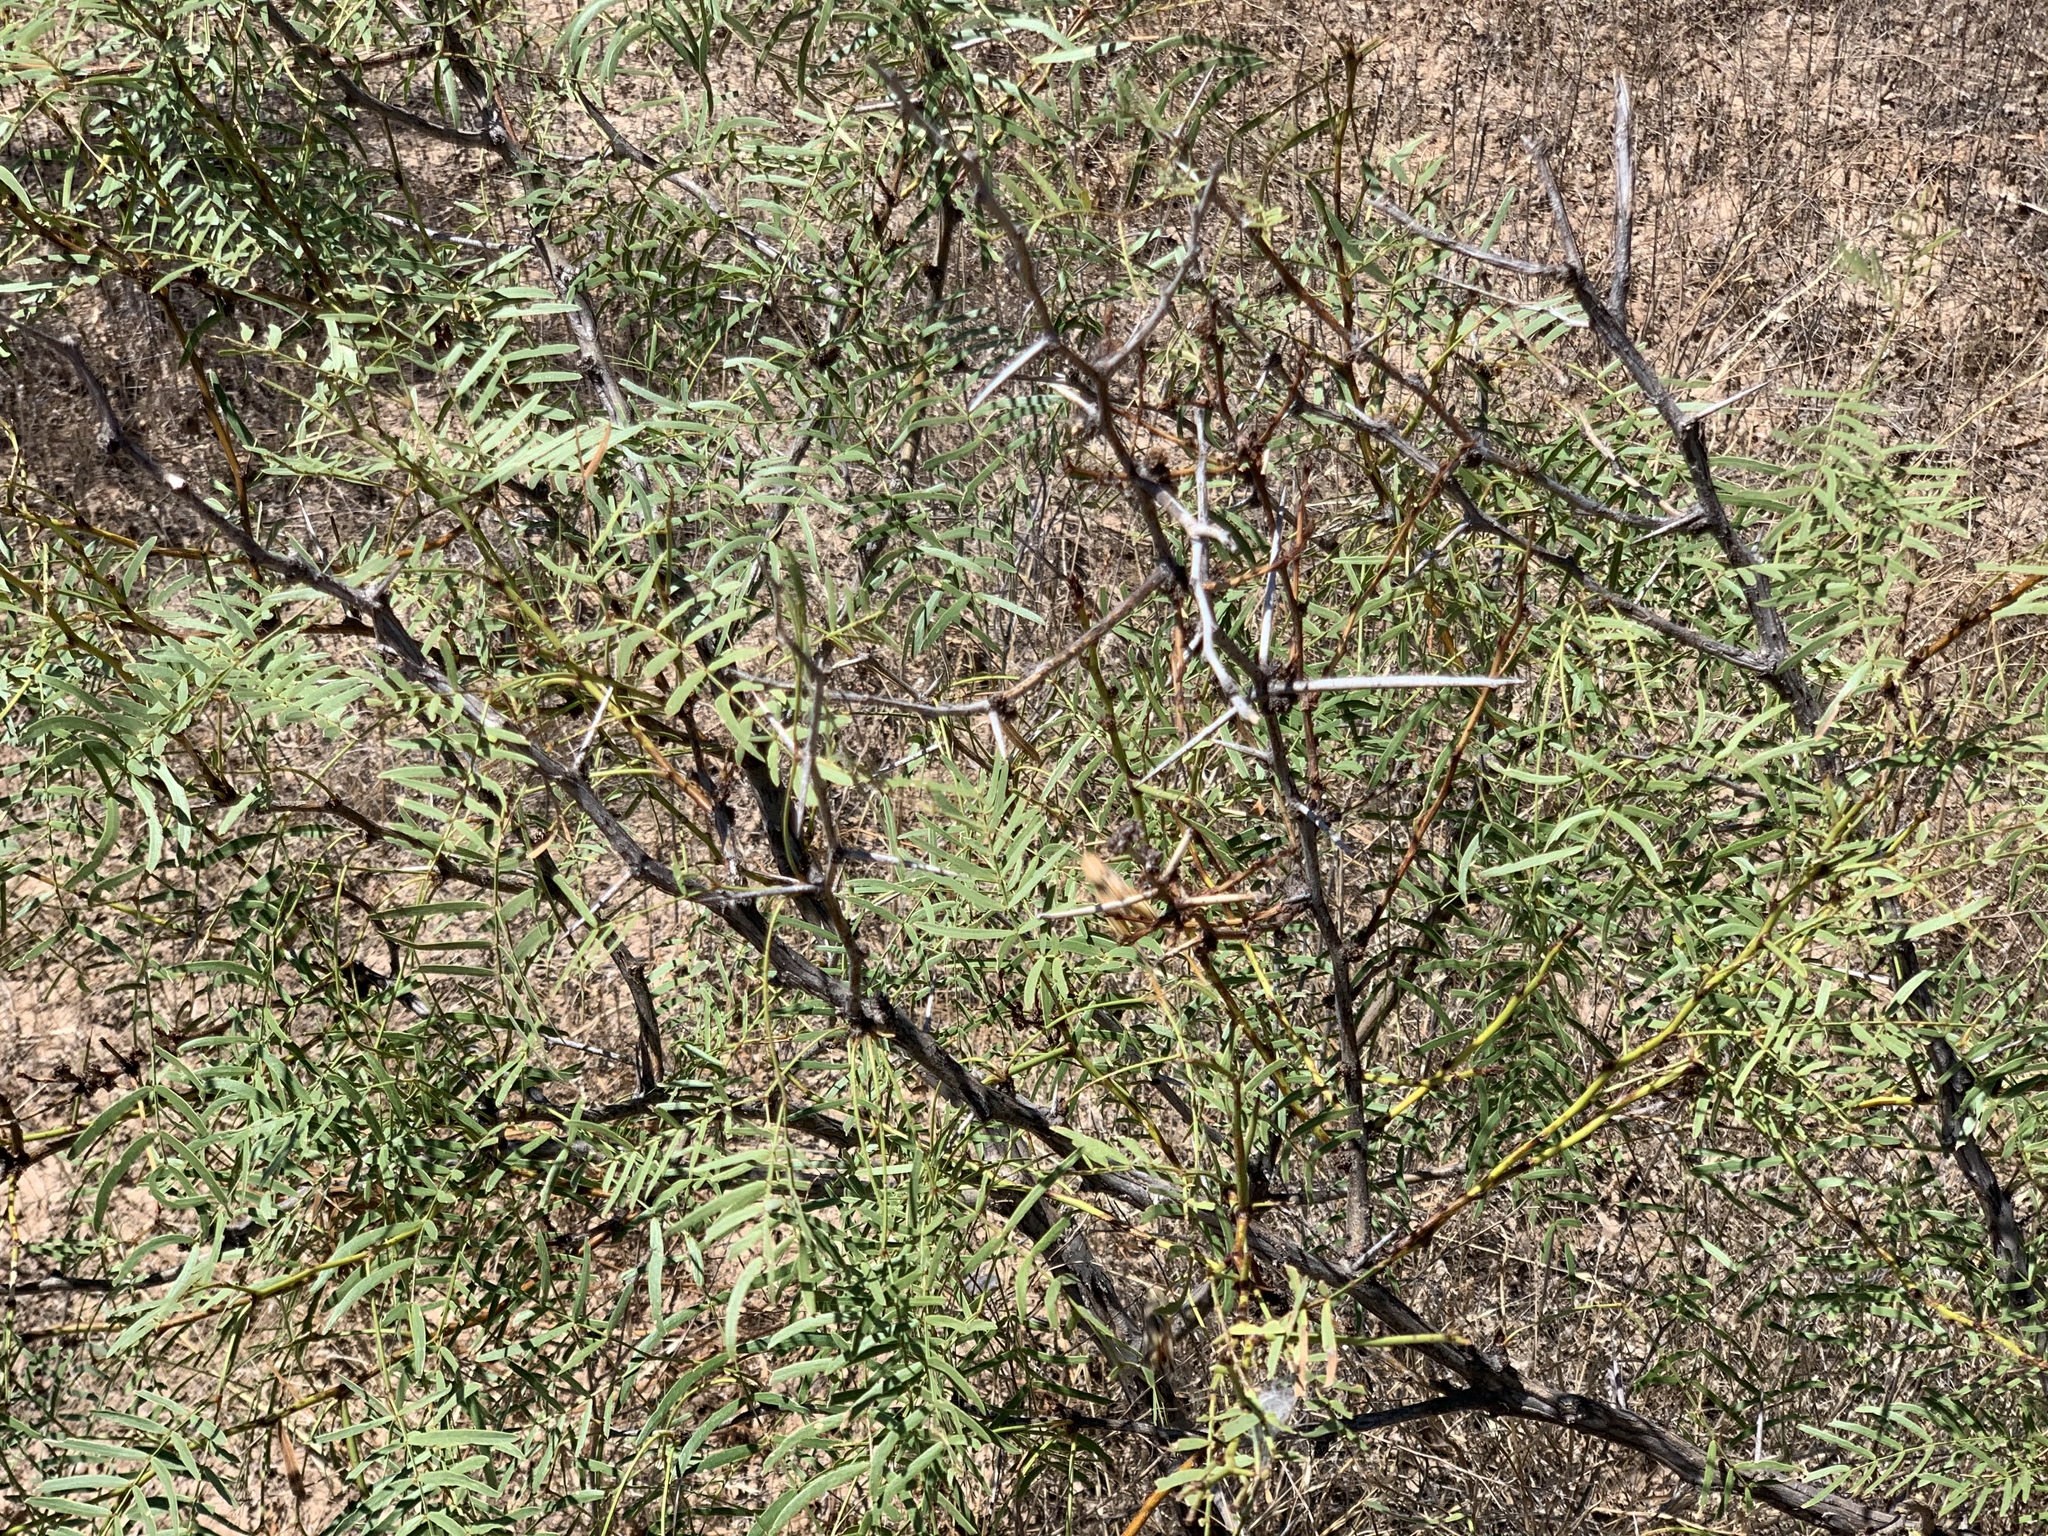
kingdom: Plantae
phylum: Tracheophyta
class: Magnoliopsida
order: Fabales
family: Fabaceae
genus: Prosopis
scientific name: Prosopis glandulosa
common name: Honey mesquite
